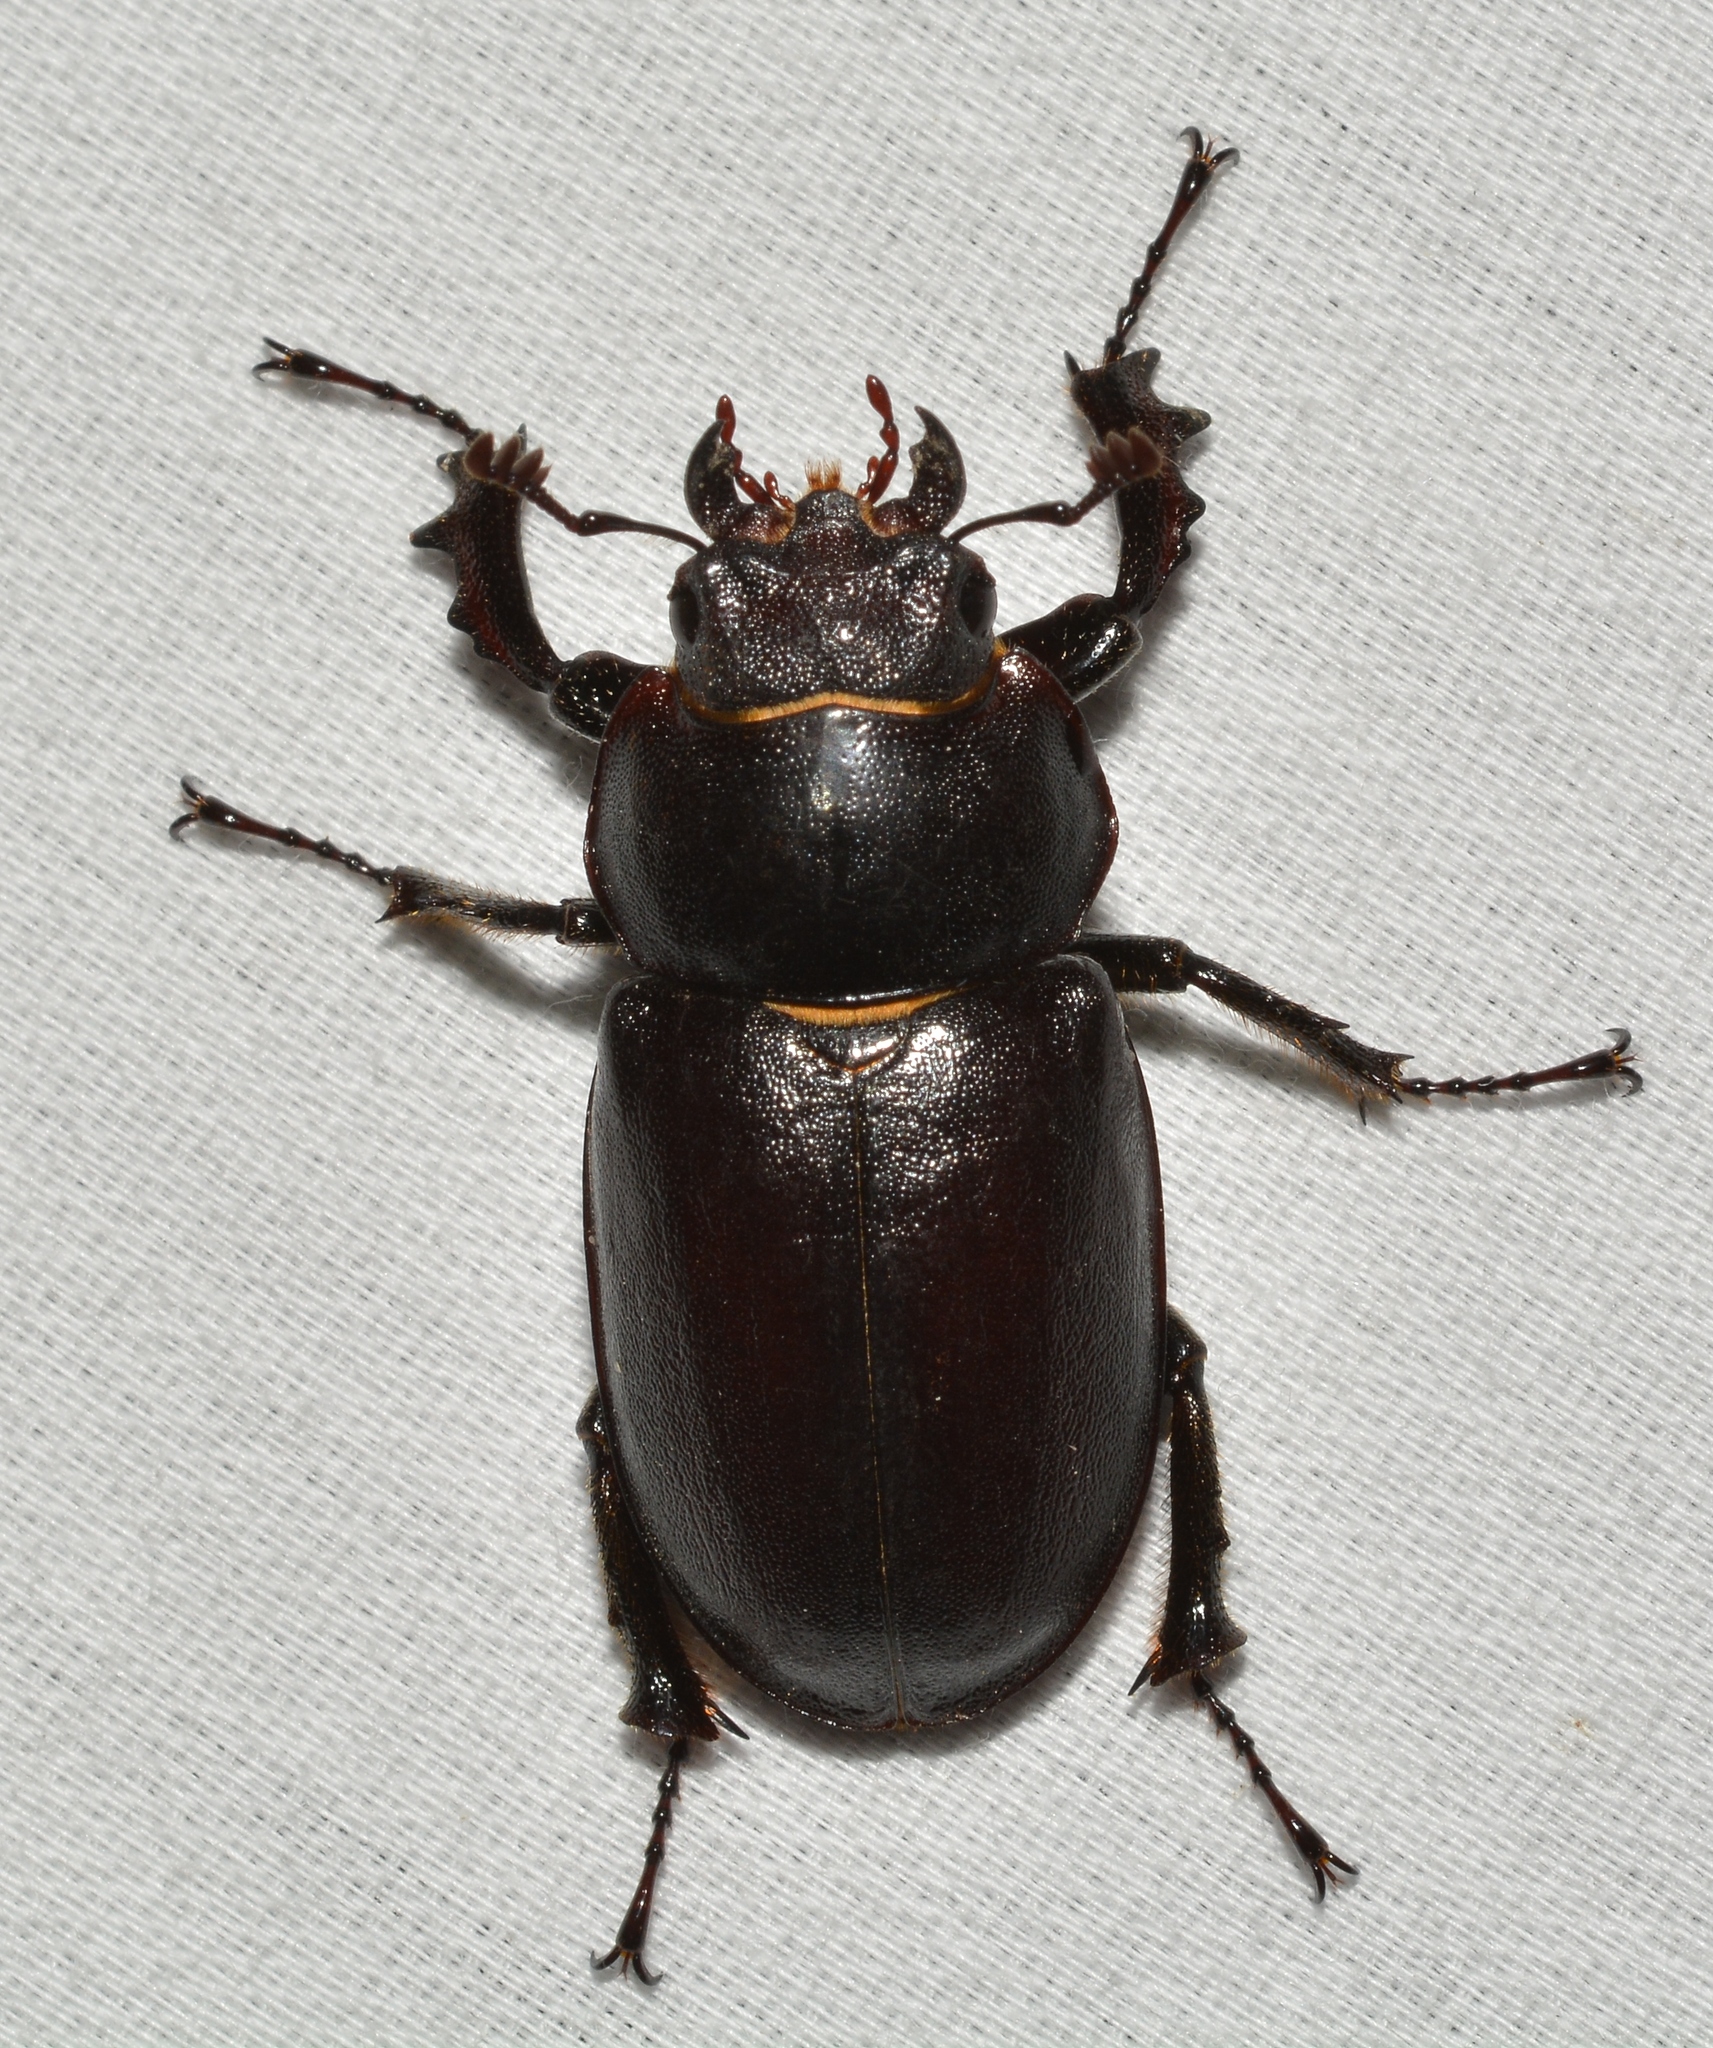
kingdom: Animalia
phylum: Arthropoda
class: Insecta
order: Coleoptera
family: Lucanidae
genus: Lucanus
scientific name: Lucanus placidus
